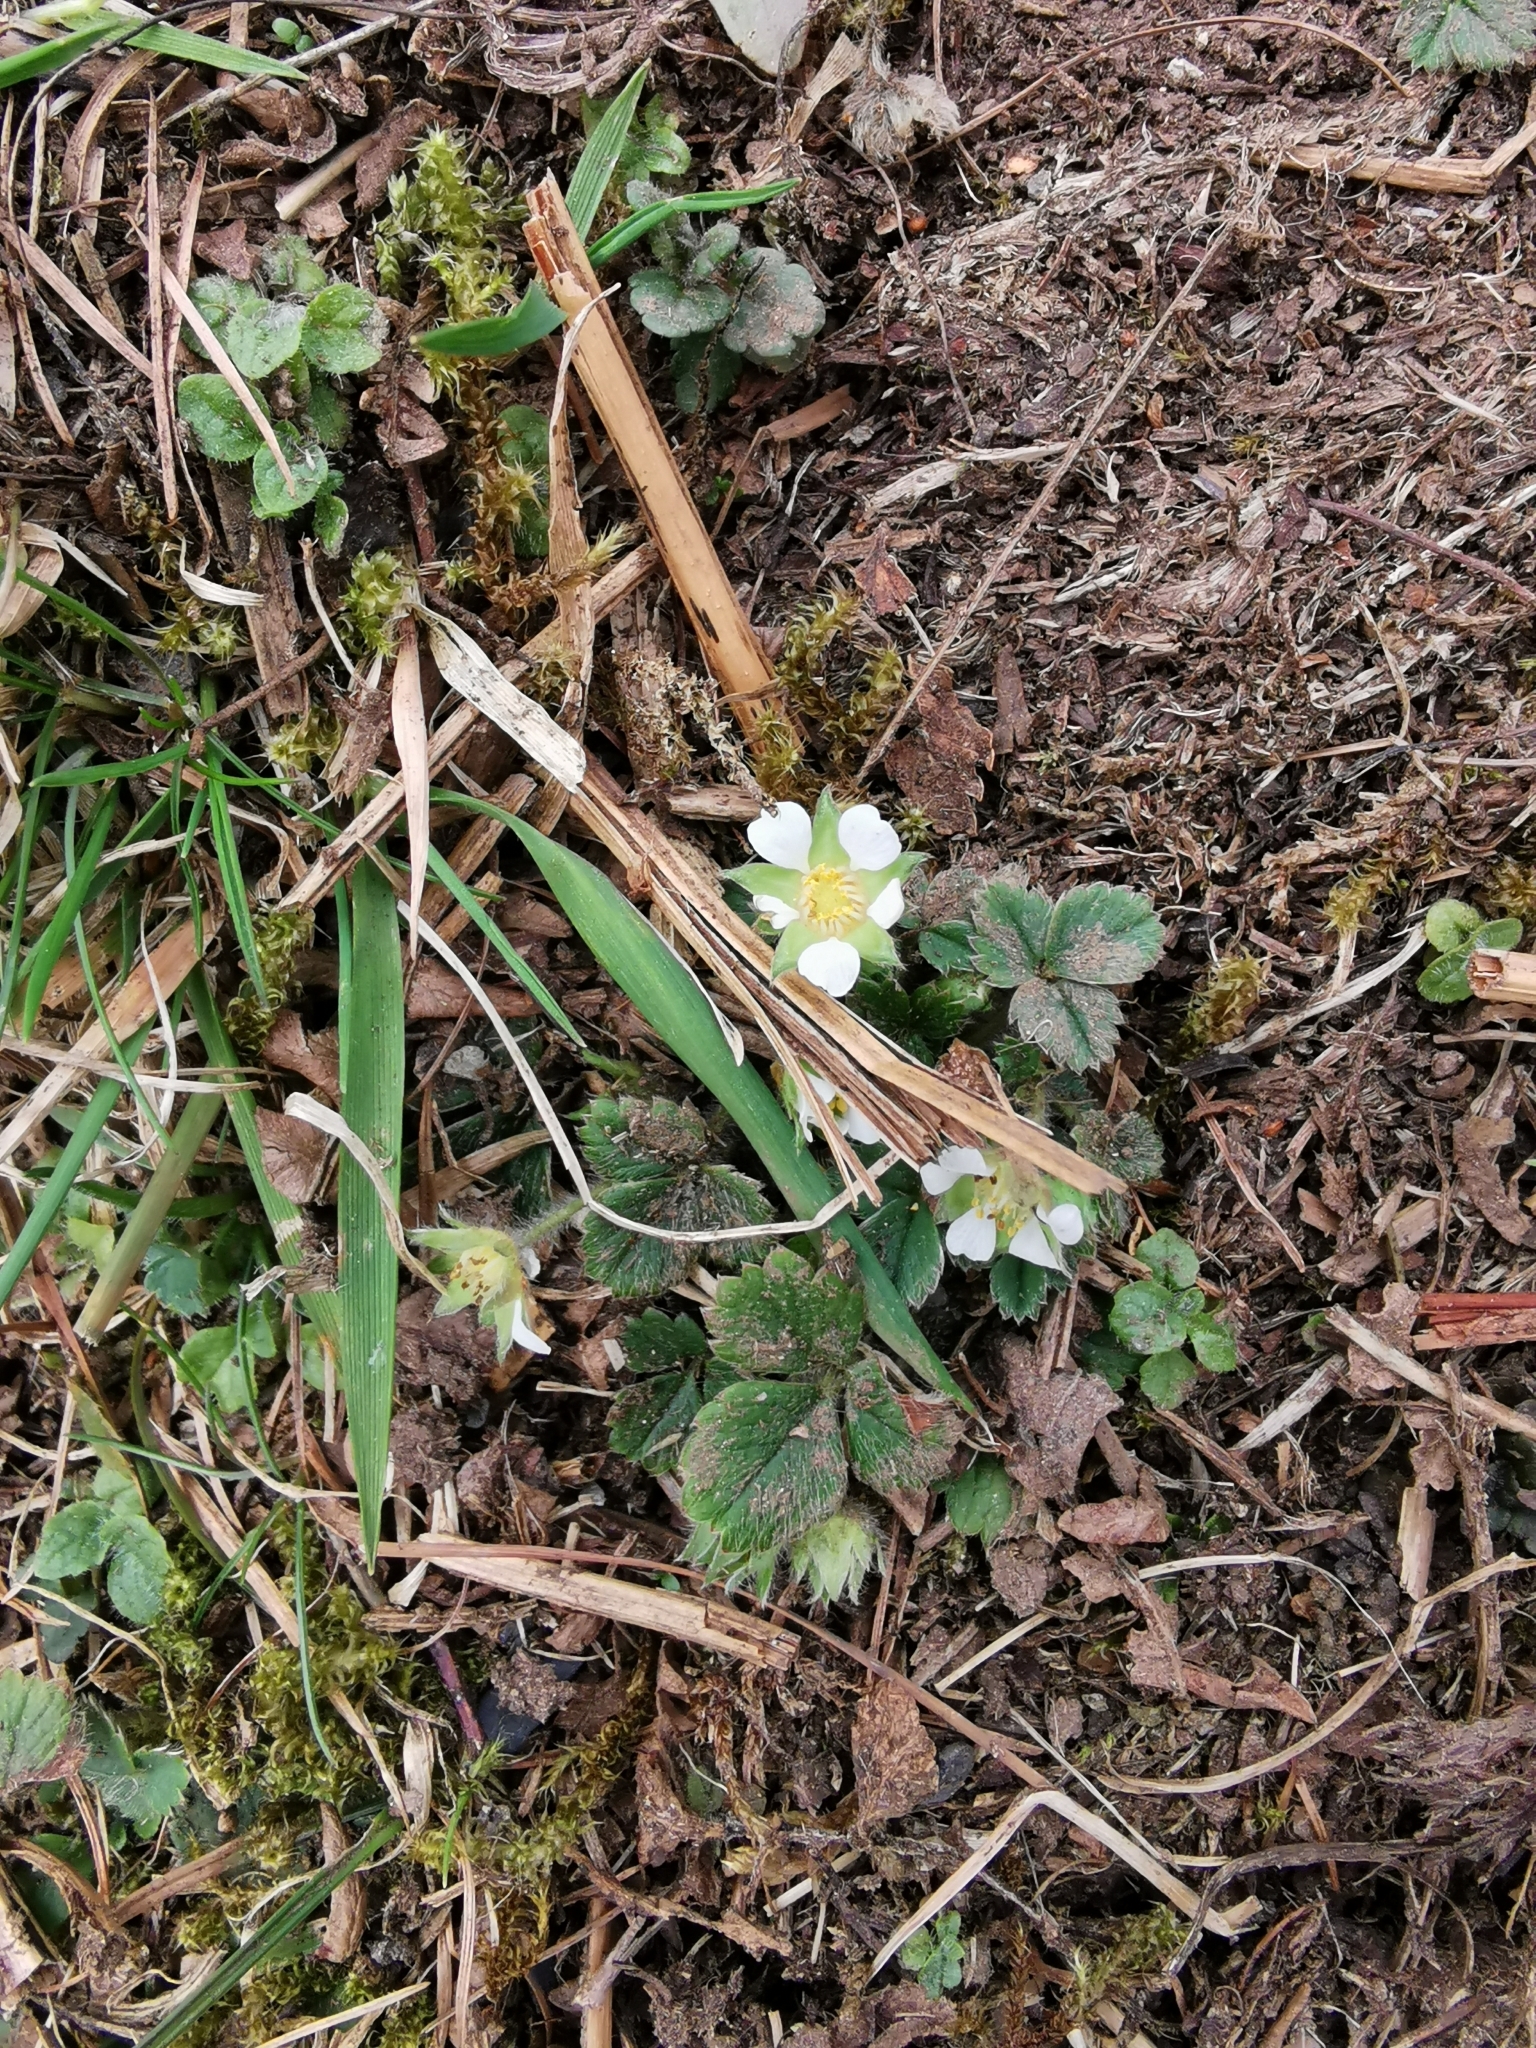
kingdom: Plantae
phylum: Tracheophyta
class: Magnoliopsida
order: Rosales
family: Rosaceae
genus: Potentilla
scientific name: Potentilla sterilis
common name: Barren strawberry
